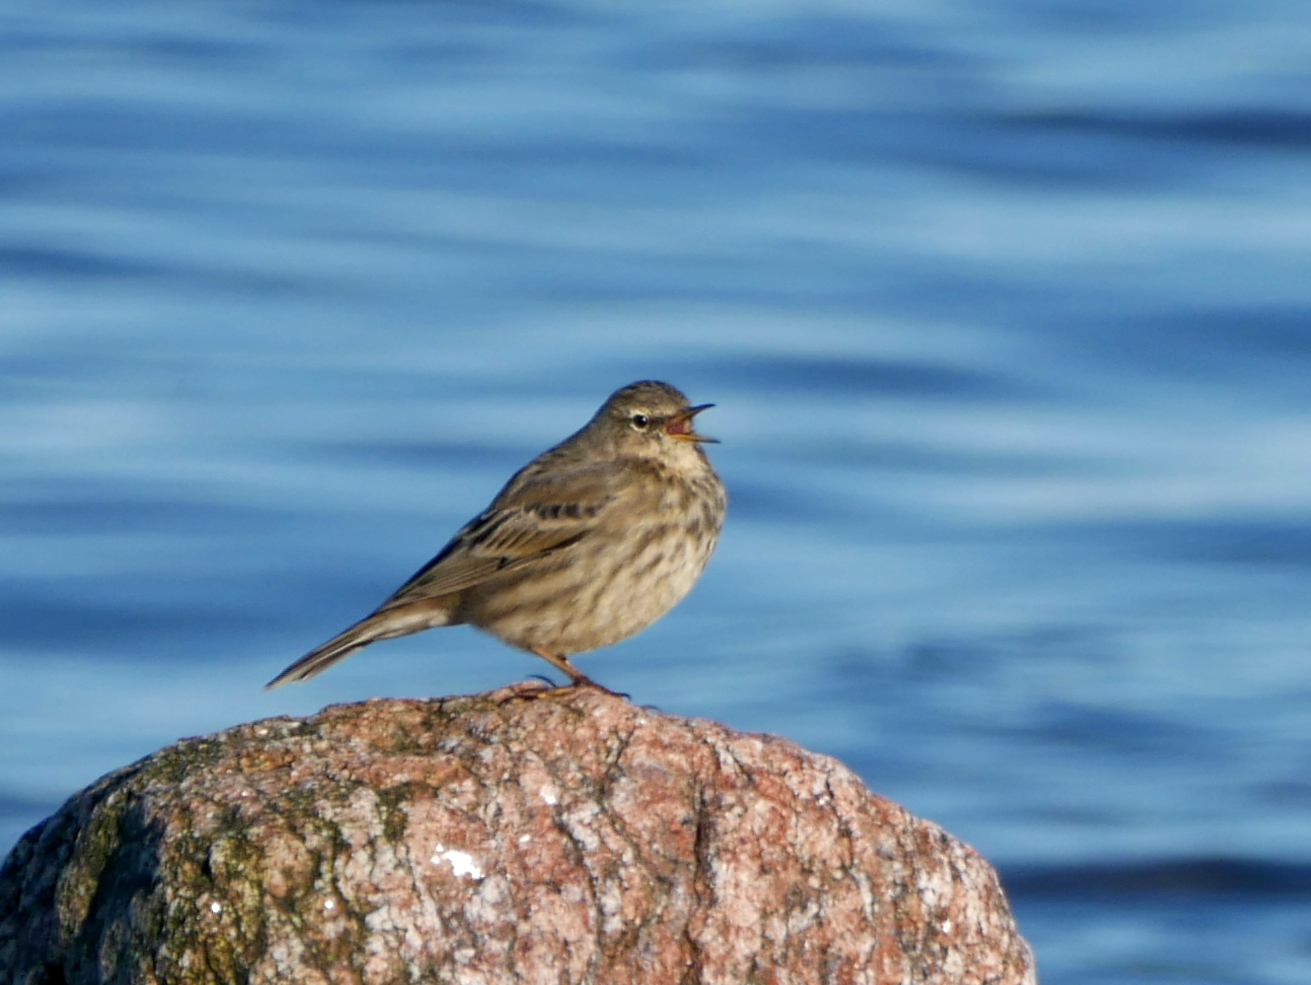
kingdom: Animalia
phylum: Chordata
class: Aves
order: Passeriformes
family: Motacillidae
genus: Anthus
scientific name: Anthus petrosus
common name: Eurasian rock pipit
